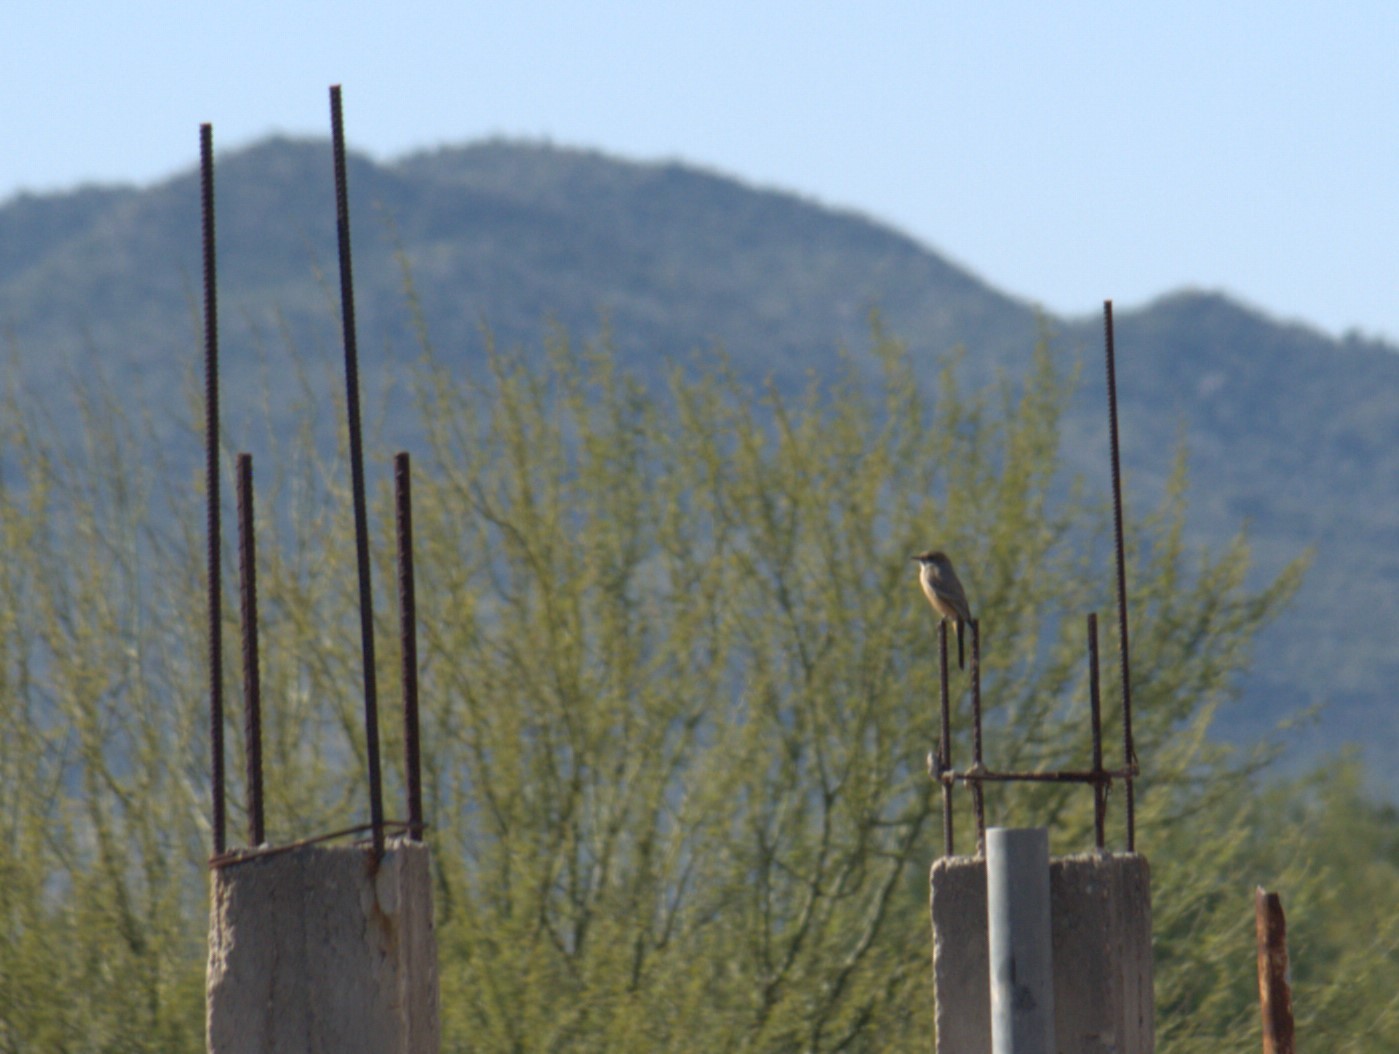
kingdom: Animalia
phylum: Chordata
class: Aves
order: Passeriformes
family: Tyrannidae
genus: Sayornis
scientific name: Sayornis saya
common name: Say's phoebe
